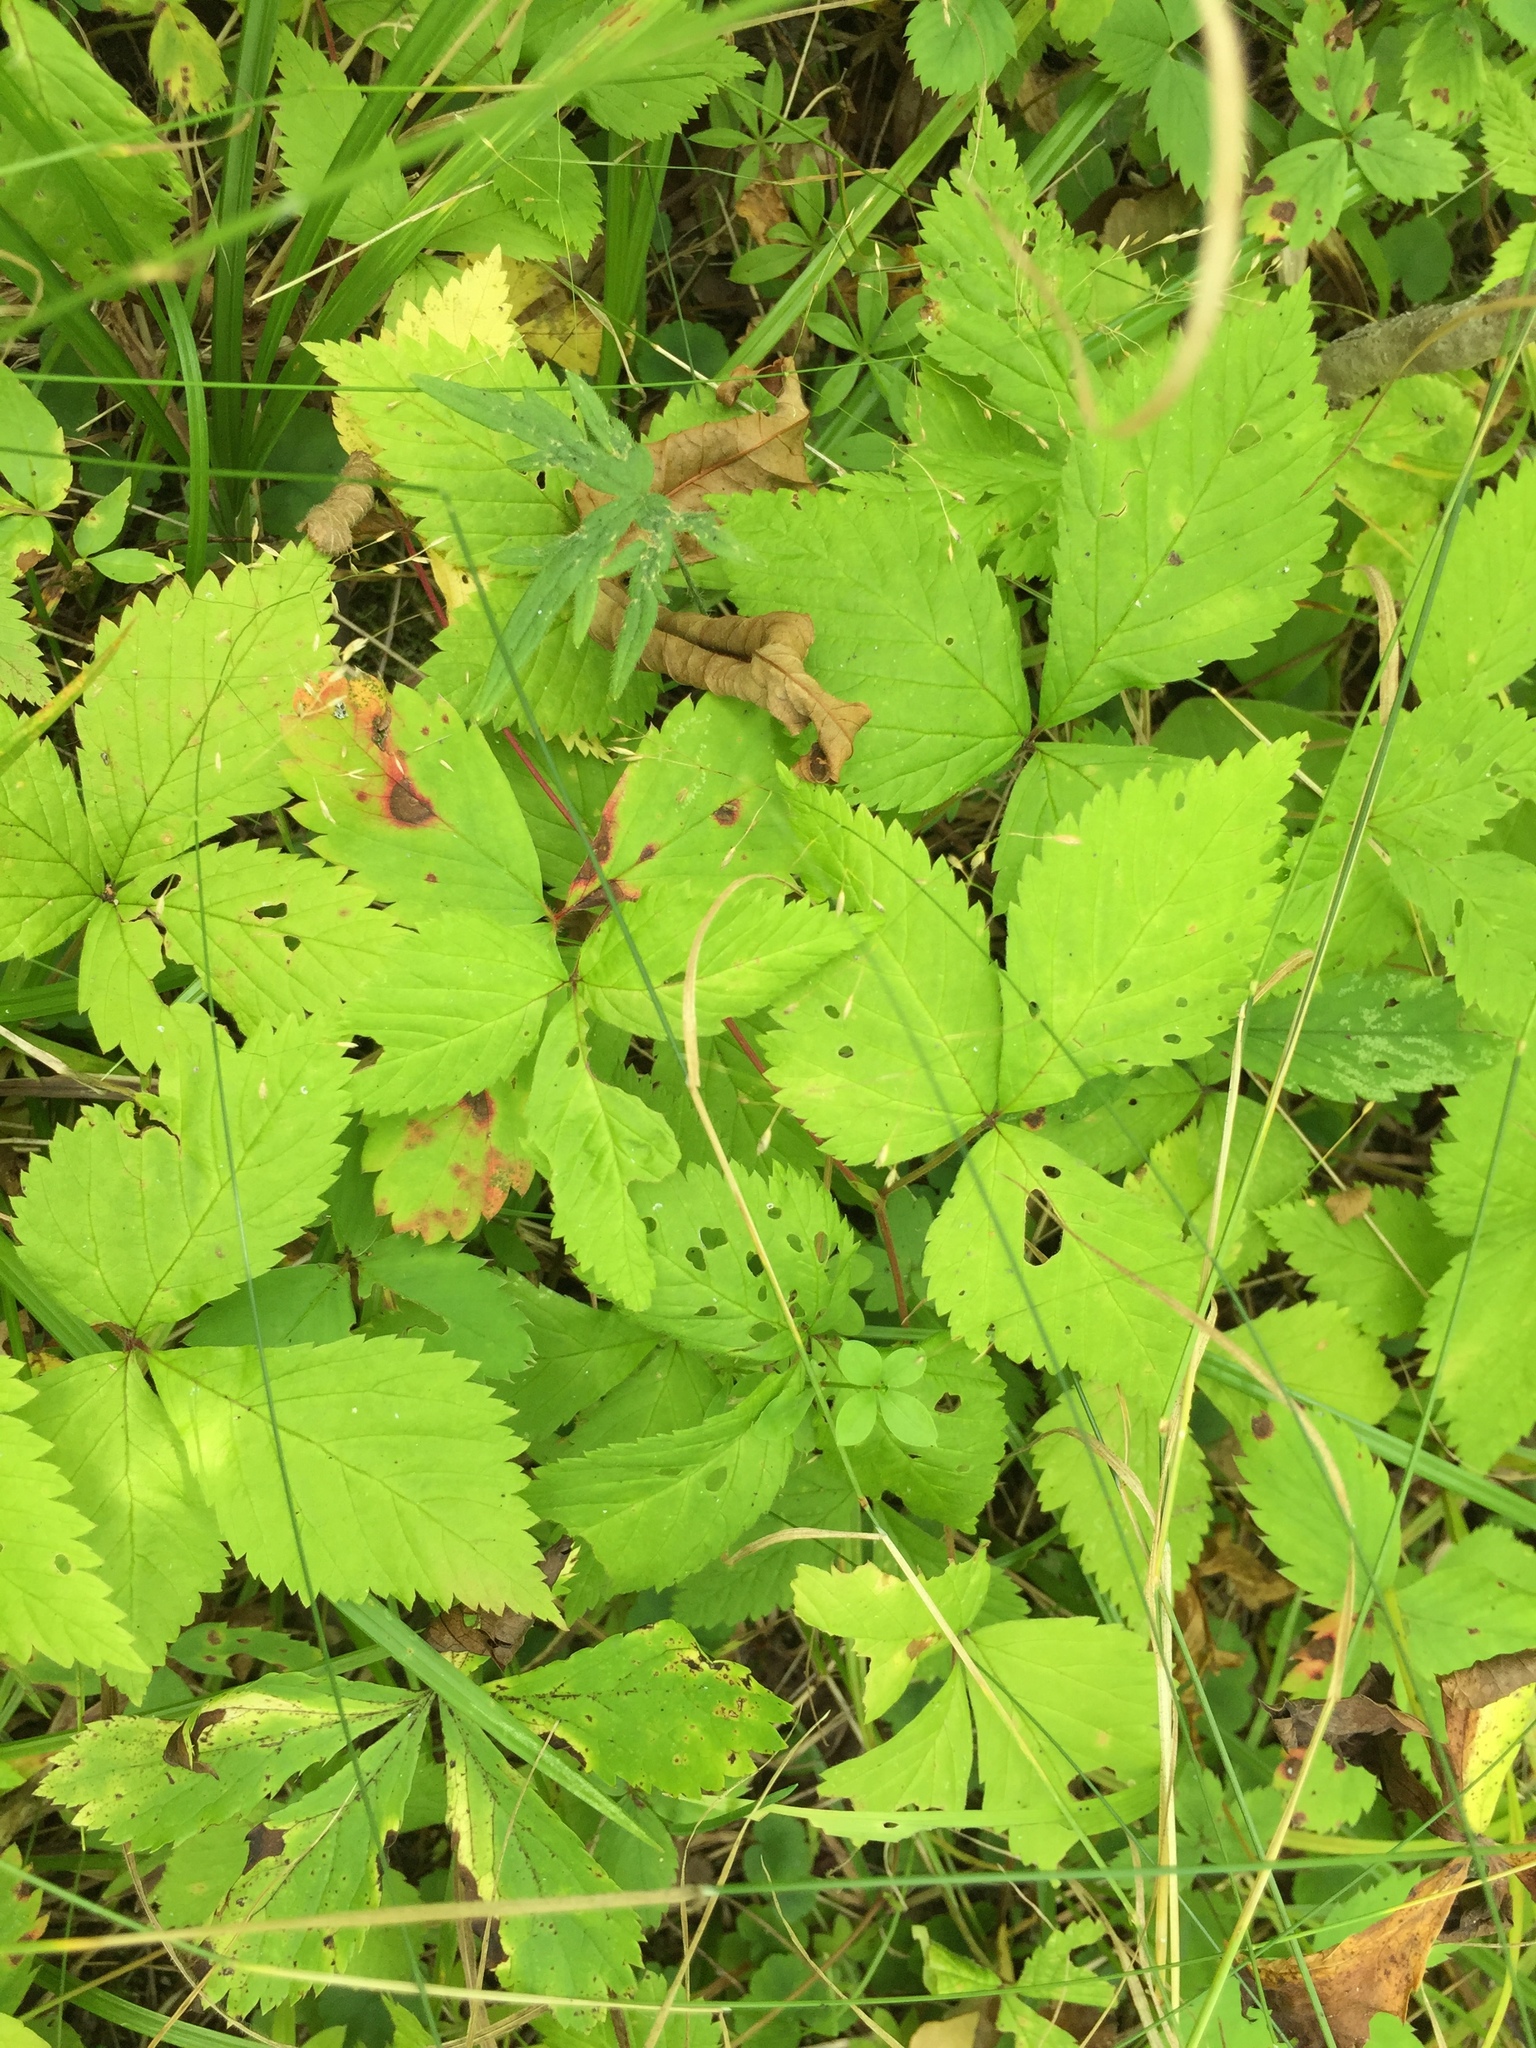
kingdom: Plantae
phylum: Tracheophyta
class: Magnoliopsida
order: Rosales
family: Rosaceae
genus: Rubus
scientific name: Rubus pubescens
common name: Dwarf raspberry
